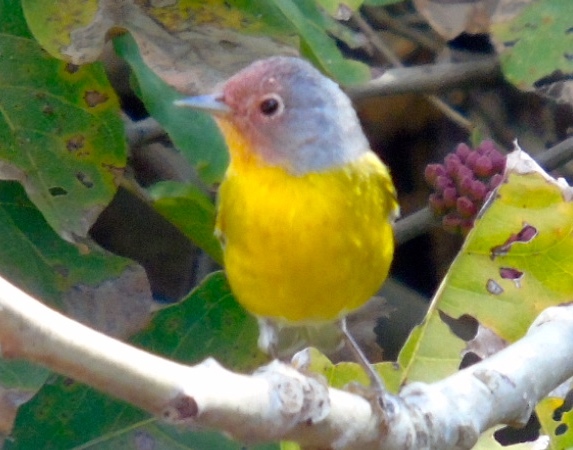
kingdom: Animalia
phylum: Chordata
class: Aves
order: Passeriformes
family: Parulidae
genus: Leiothlypis
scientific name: Leiothlypis ruficapilla
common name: Nashville warbler
